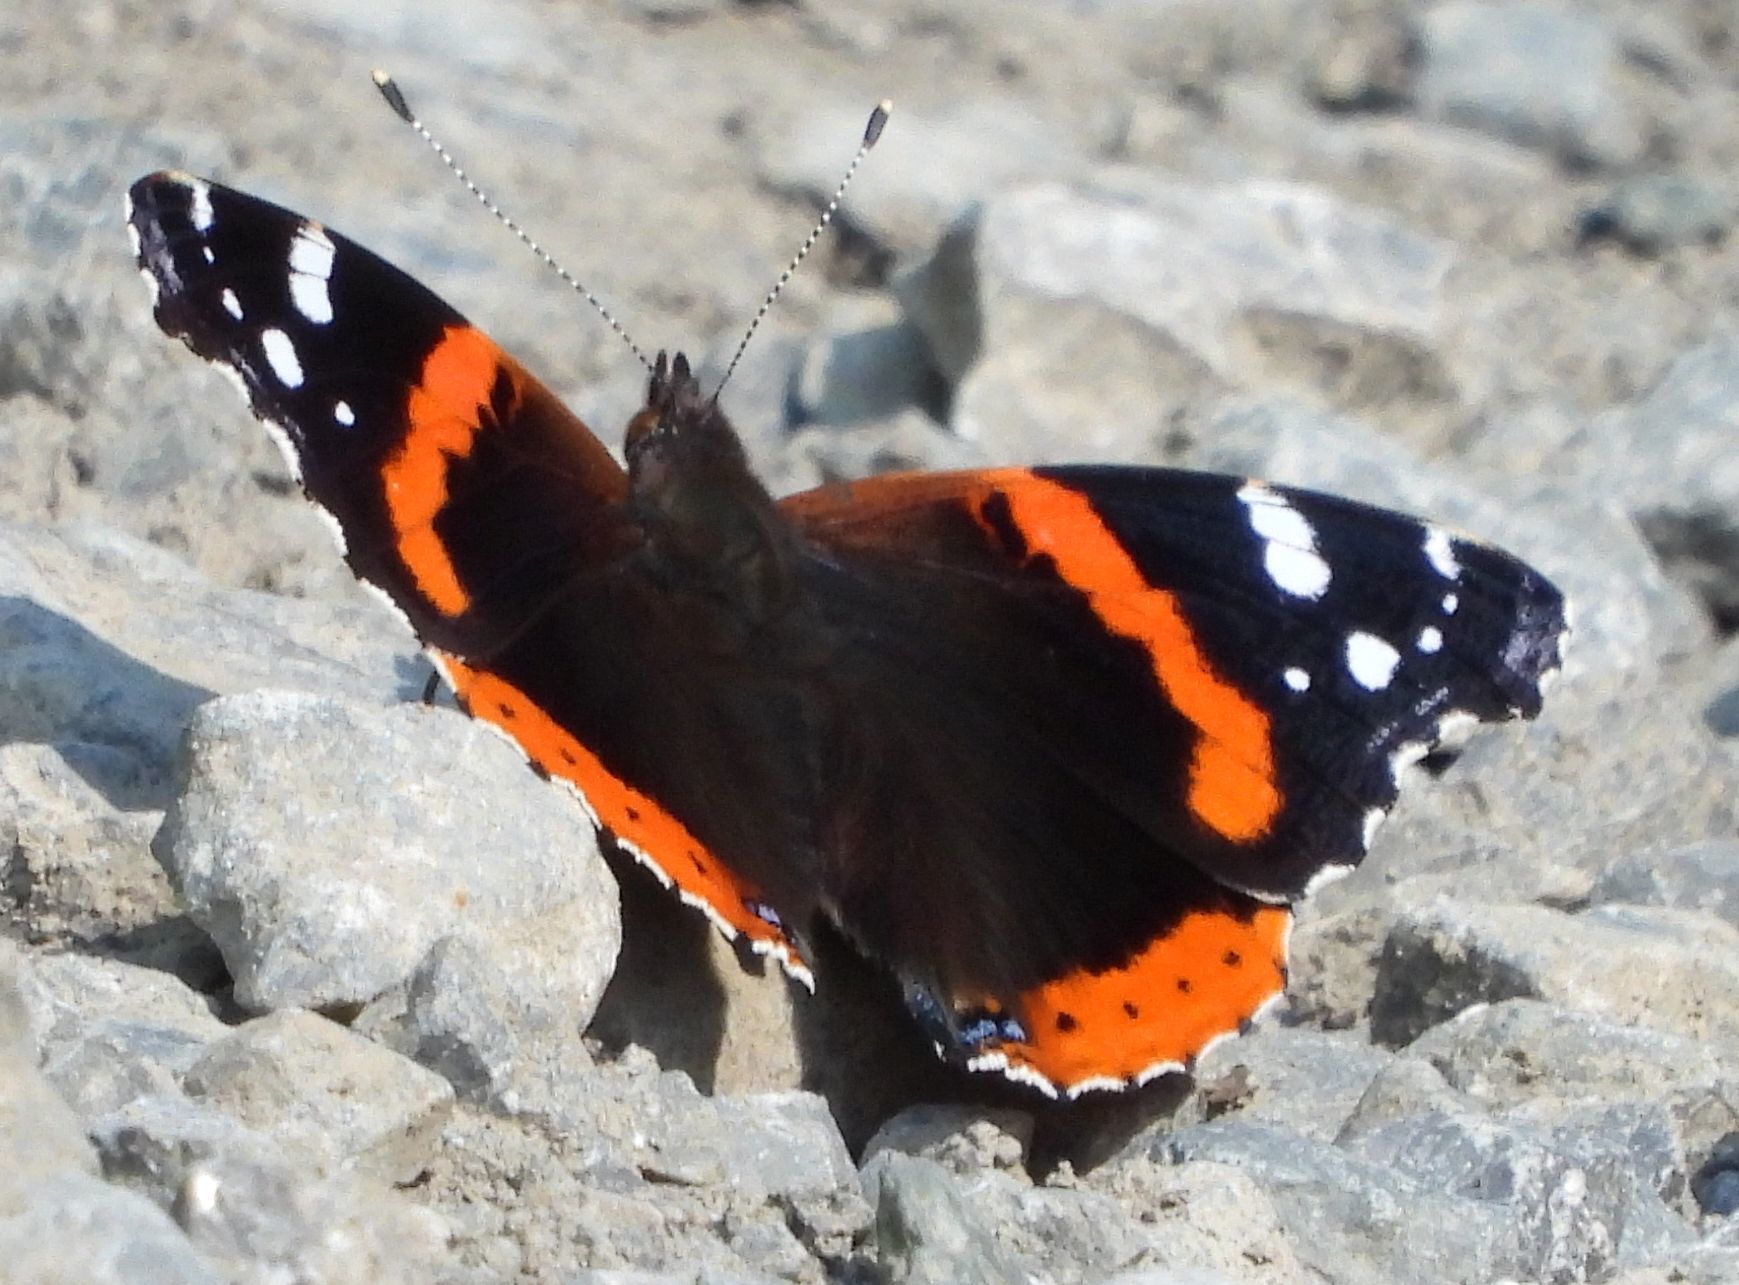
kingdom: Animalia
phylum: Arthropoda
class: Insecta
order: Lepidoptera
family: Nymphalidae
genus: Vanessa
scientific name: Vanessa atalanta
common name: Red admiral
